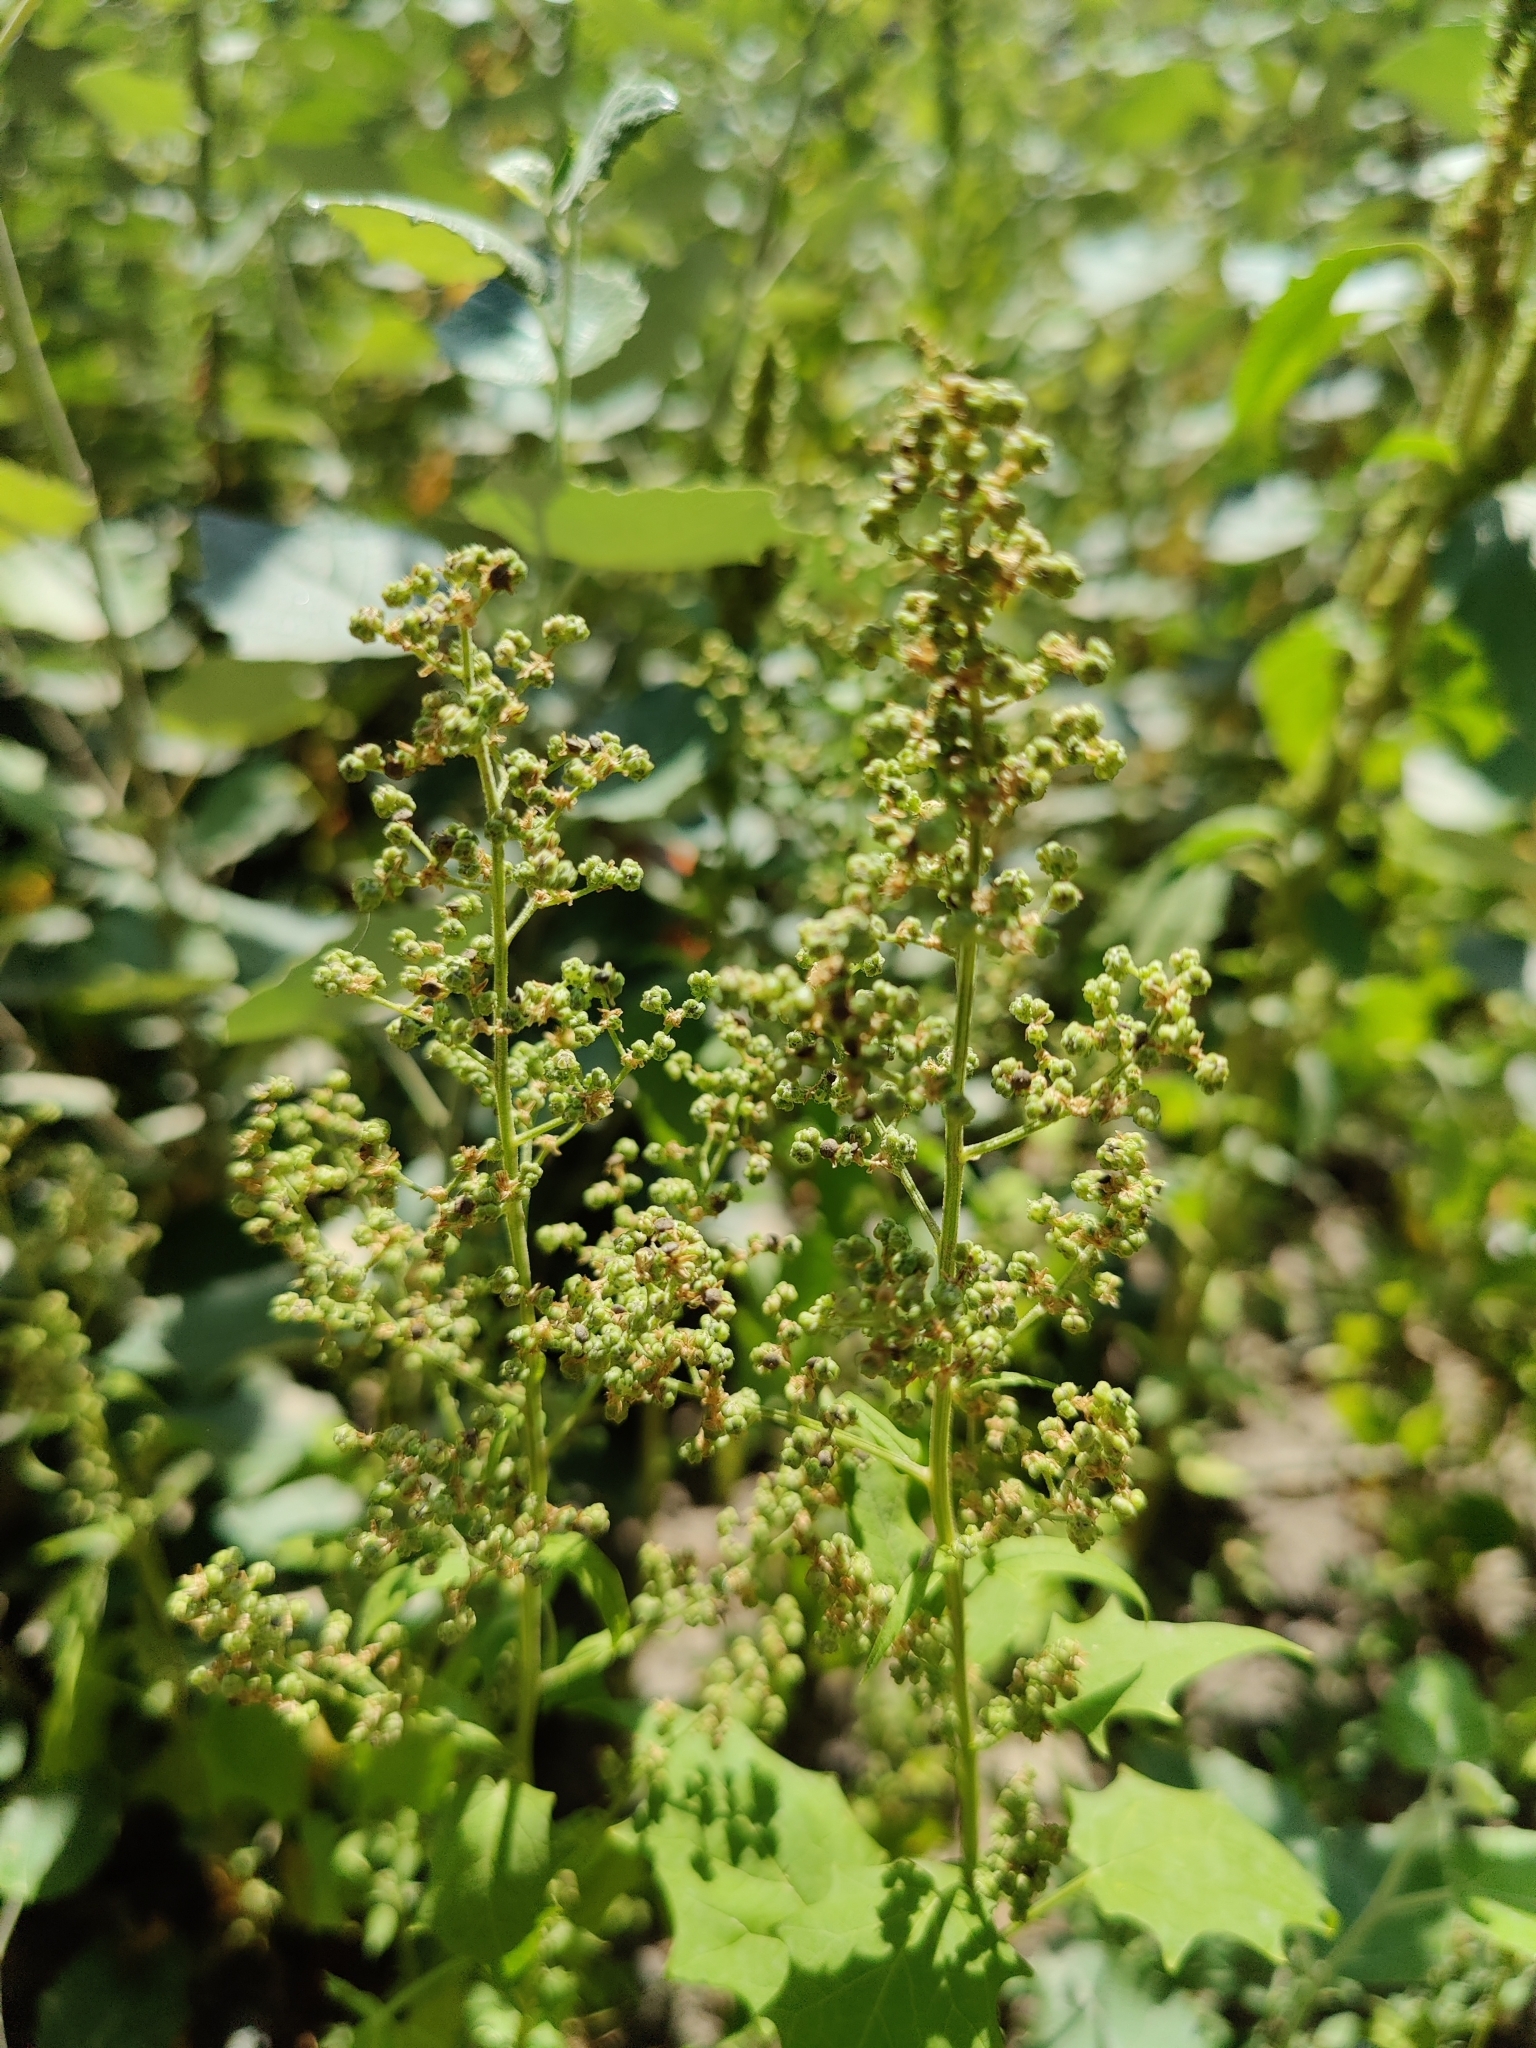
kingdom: Plantae
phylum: Tracheophyta
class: Magnoliopsida
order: Caryophyllales
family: Amaranthaceae
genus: Chenopodiastrum
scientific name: Chenopodiastrum hybridum
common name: Mapleleaf goosefoot
